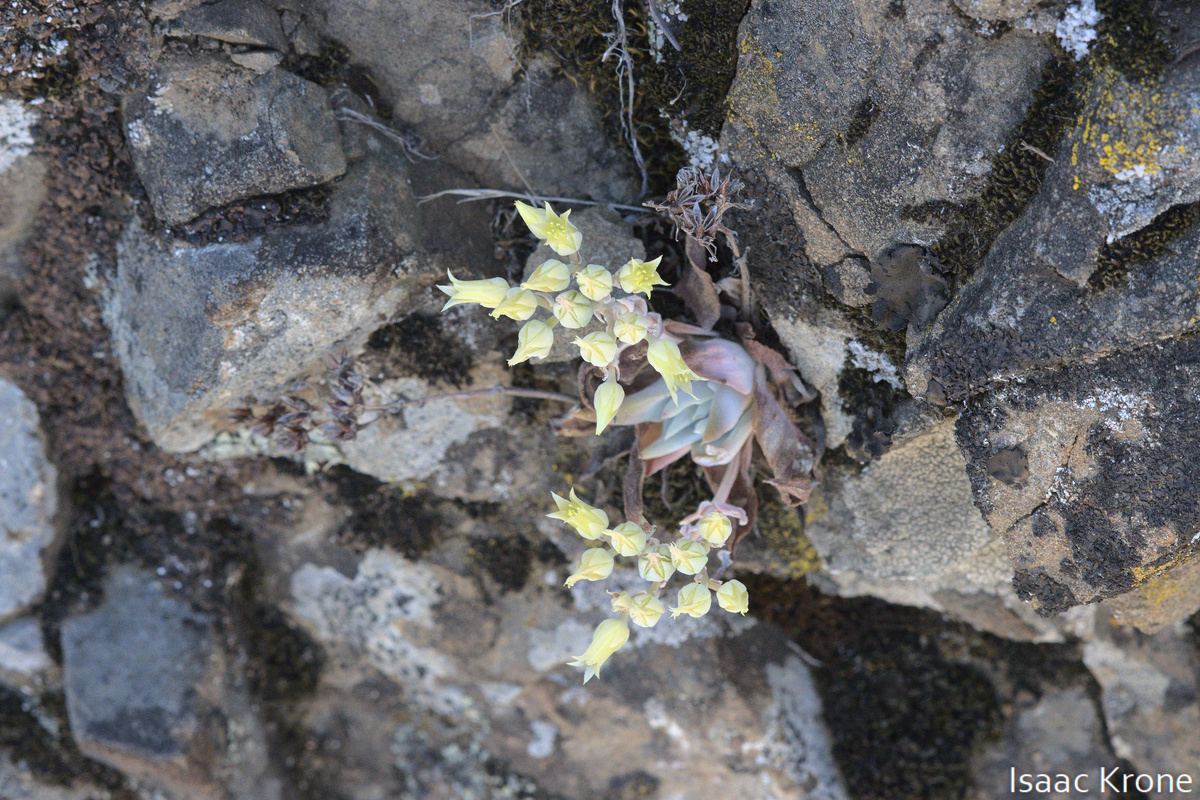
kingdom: Plantae
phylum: Tracheophyta
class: Magnoliopsida
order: Saxifragales
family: Crassulaceae
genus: Dudleya
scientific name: Dudleya cymosa
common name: Canyon dudleya
